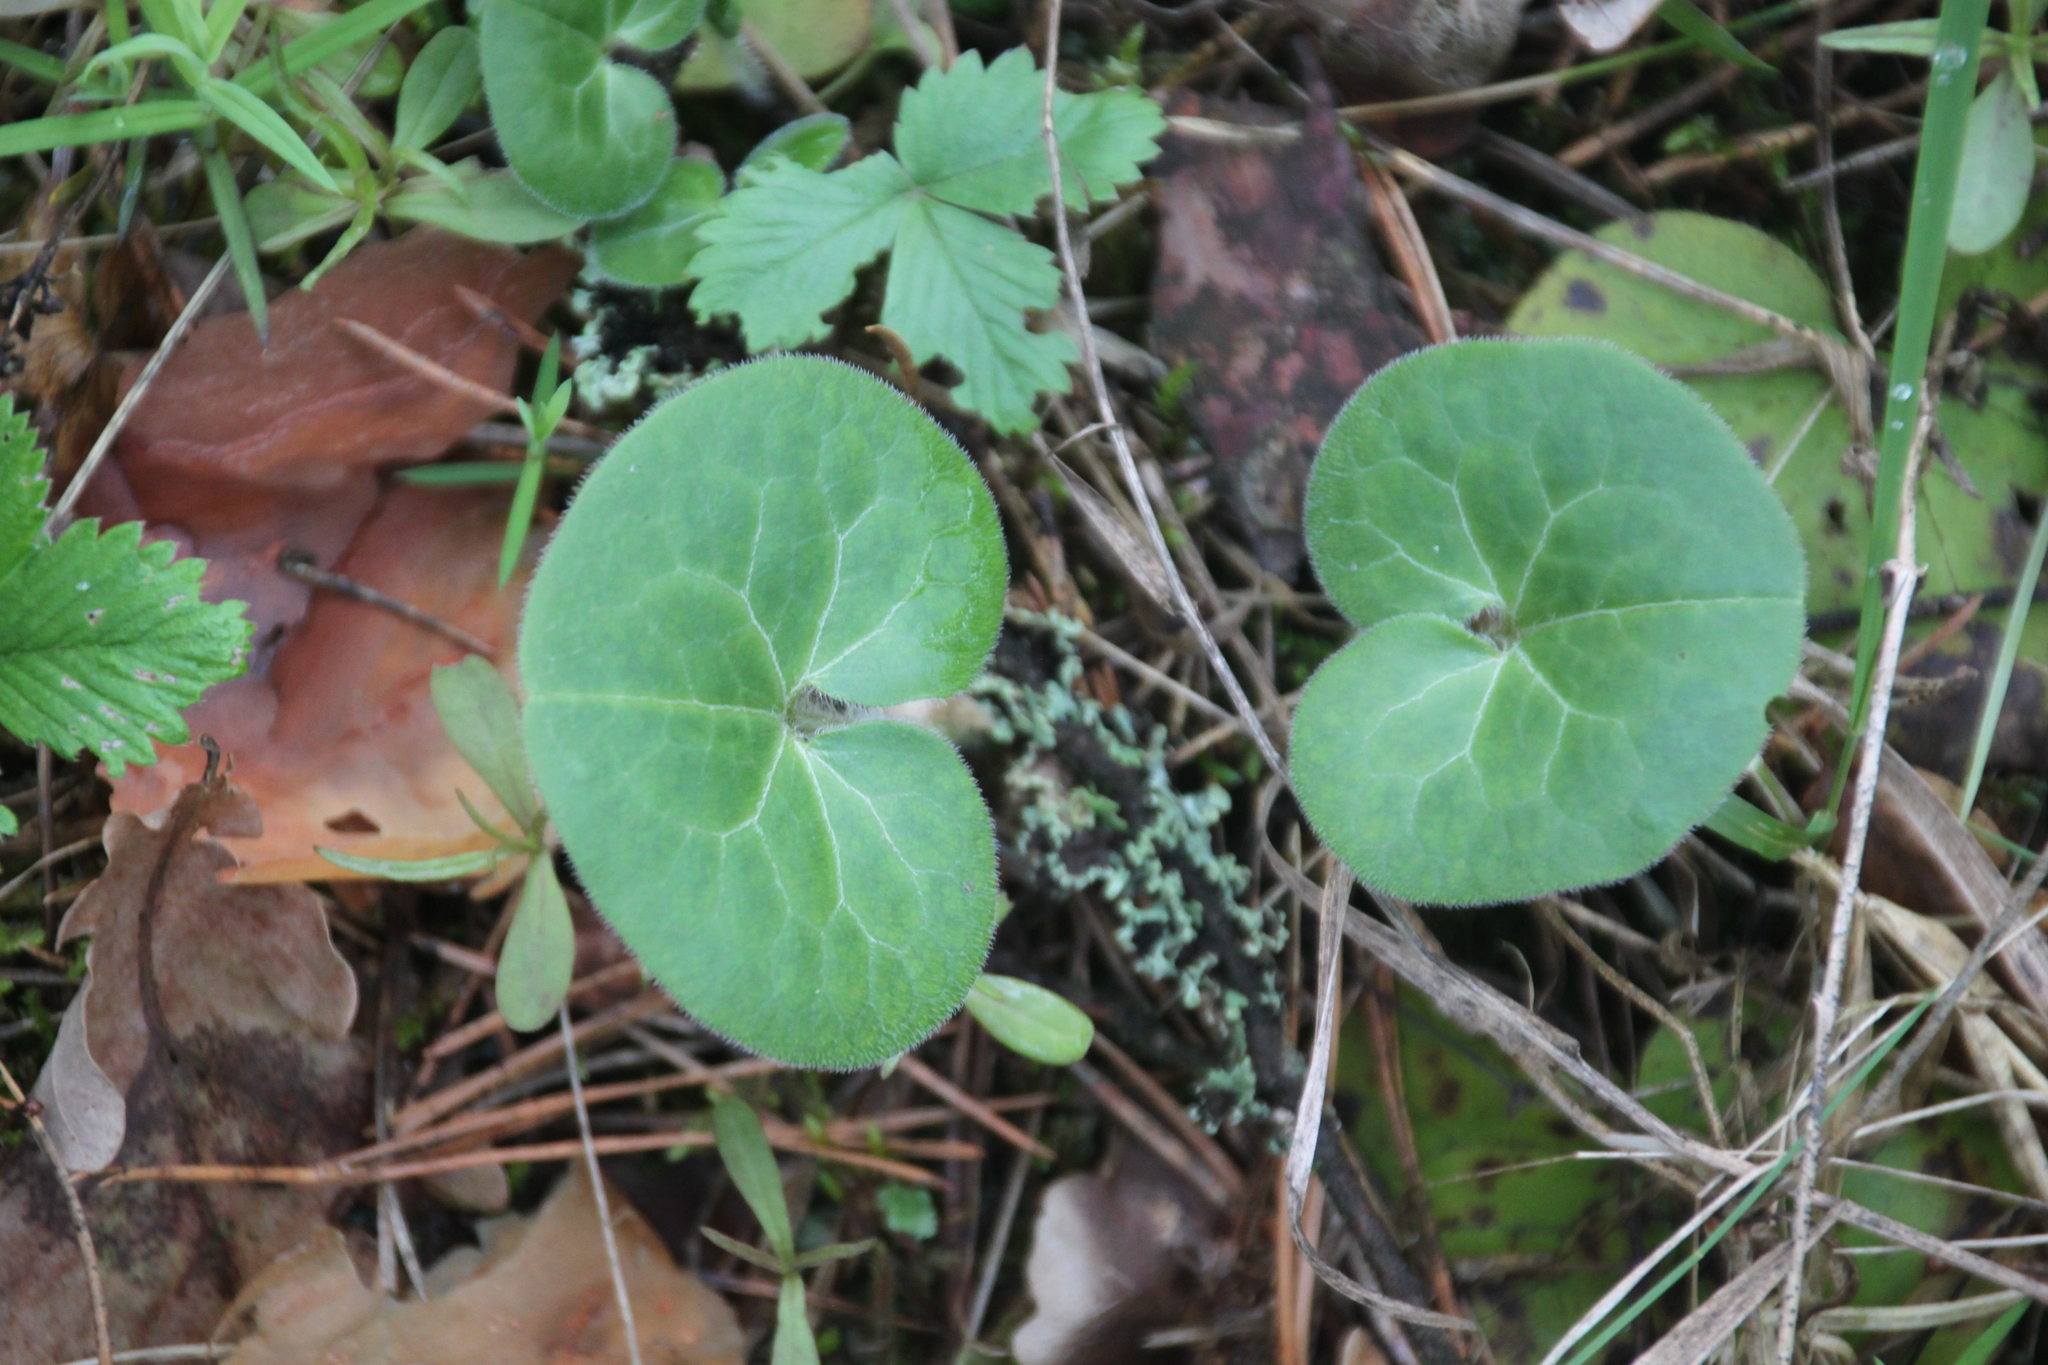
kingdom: Plantae
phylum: Tracheophyta
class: Magnoliopsida
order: Piperales
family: Aristolochiaceae
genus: Asarum
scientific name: Asarum europaeum
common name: Asarabacca
